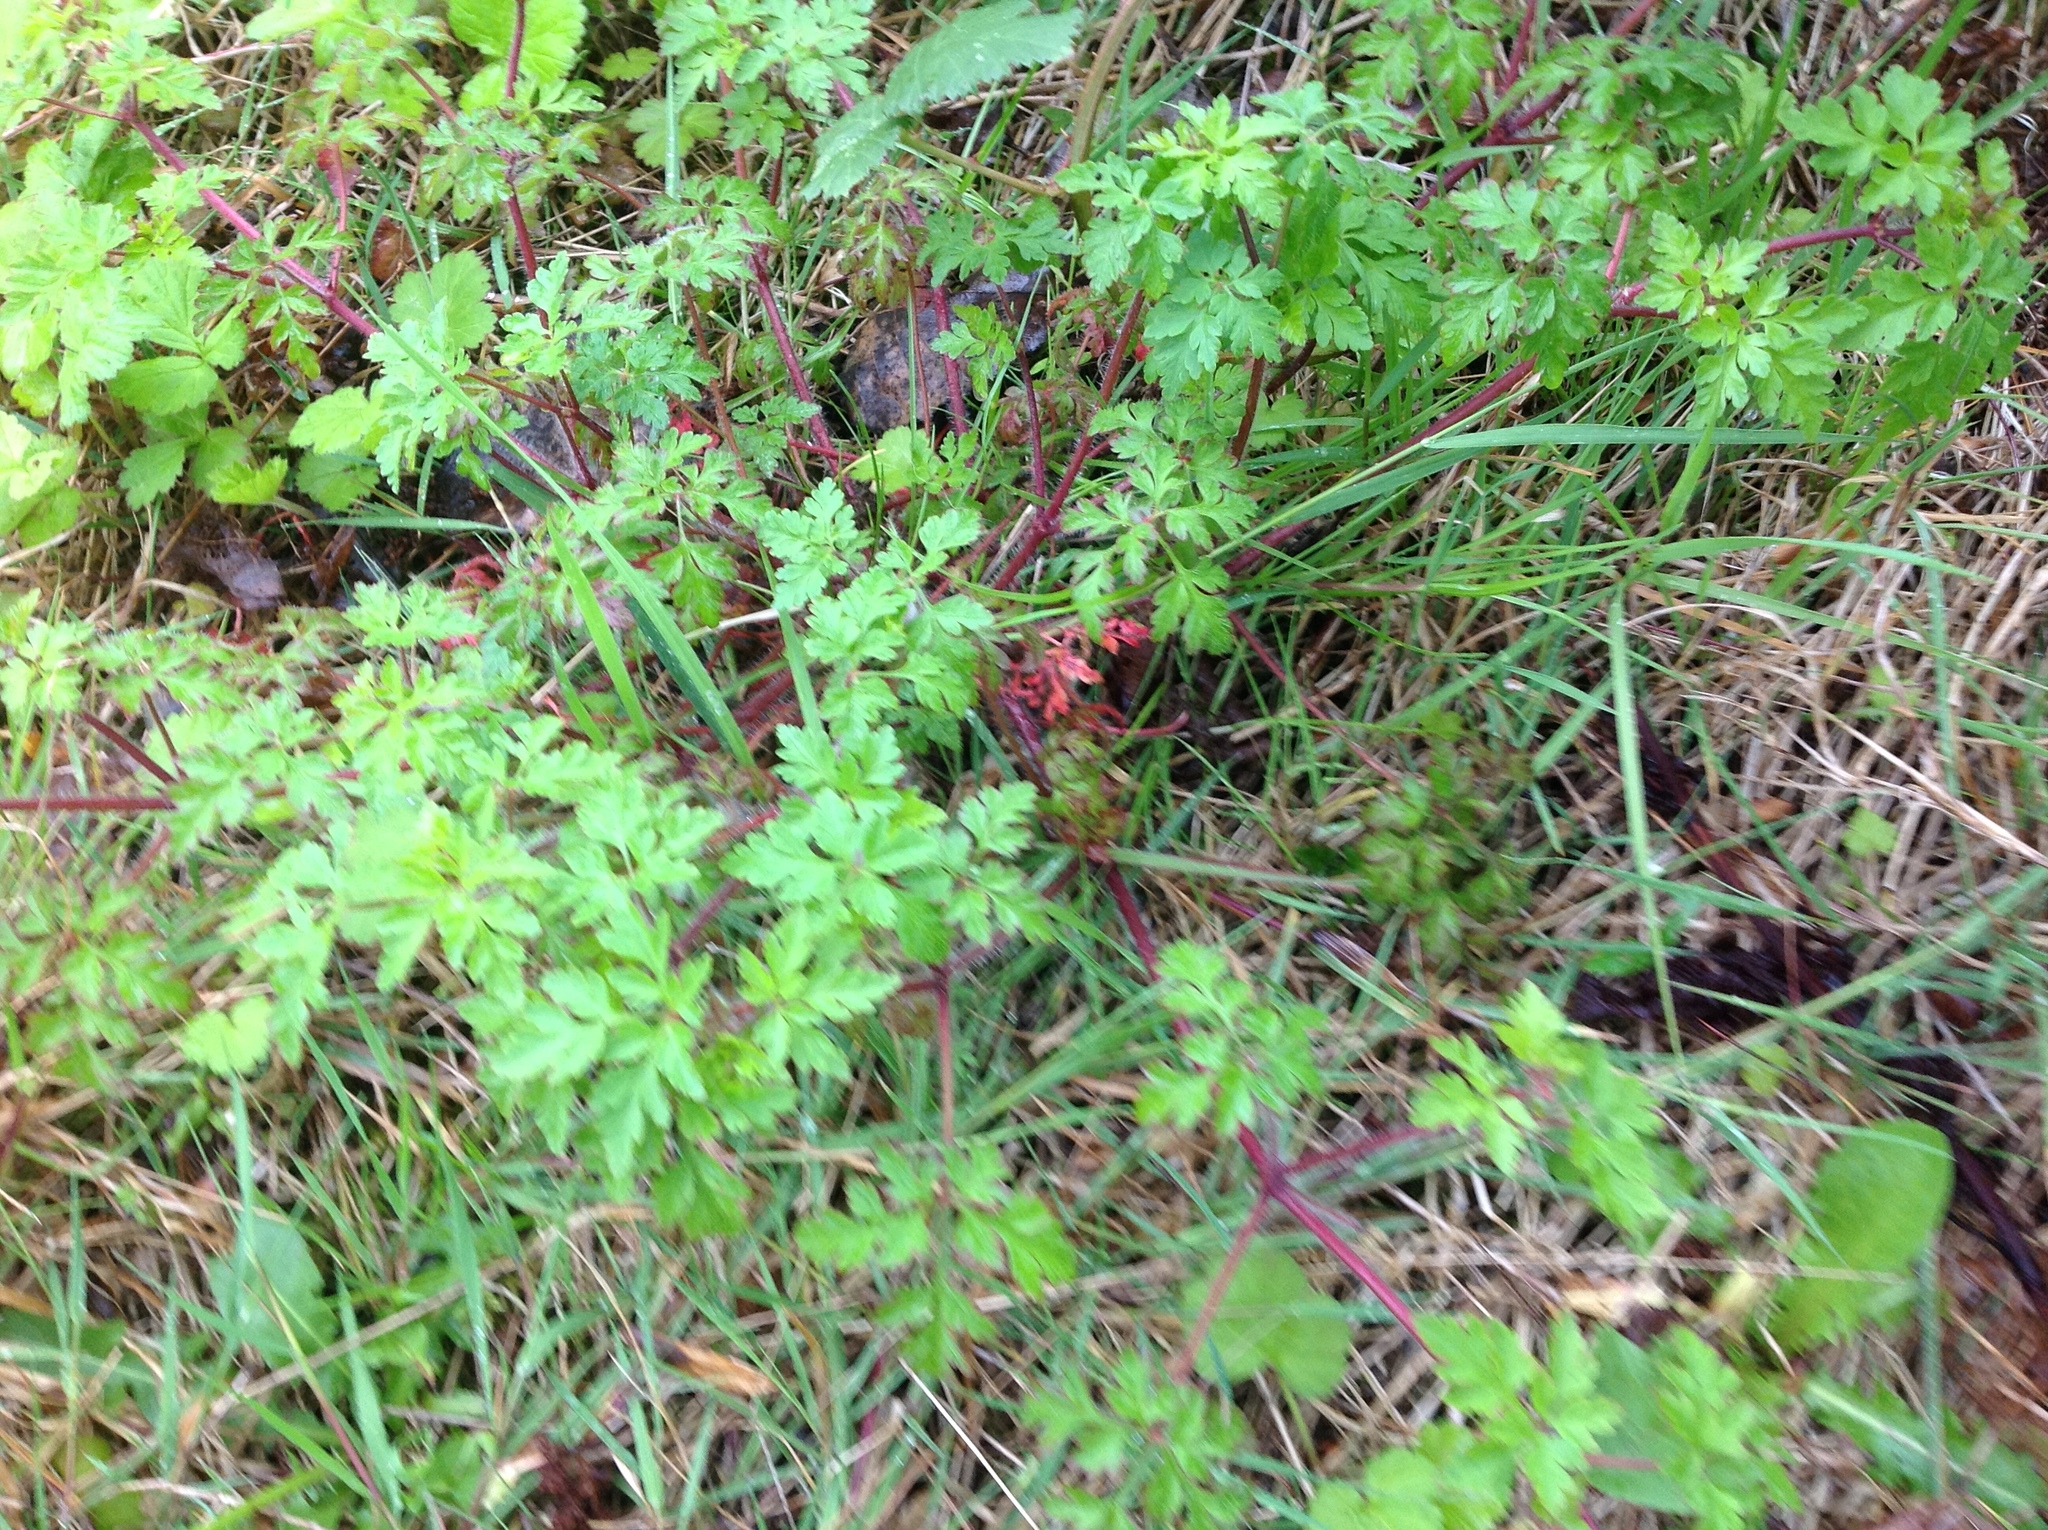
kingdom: Plantae
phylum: Tracheophyta
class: Magnoliopsida
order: Geraniales
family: Geraniaceae
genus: Geranium
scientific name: Geranium robertianum
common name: Herb-robert
